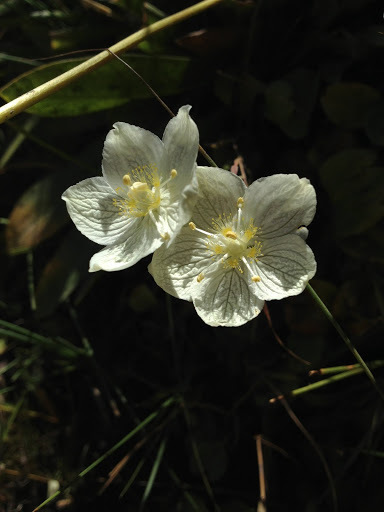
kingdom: Plantae
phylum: Tracheophyta
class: Magnoliopsida
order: Celastrales
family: Parnassiaceae
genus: Parnassia
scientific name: Parnassia palustris
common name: Grass-of-parnassus
